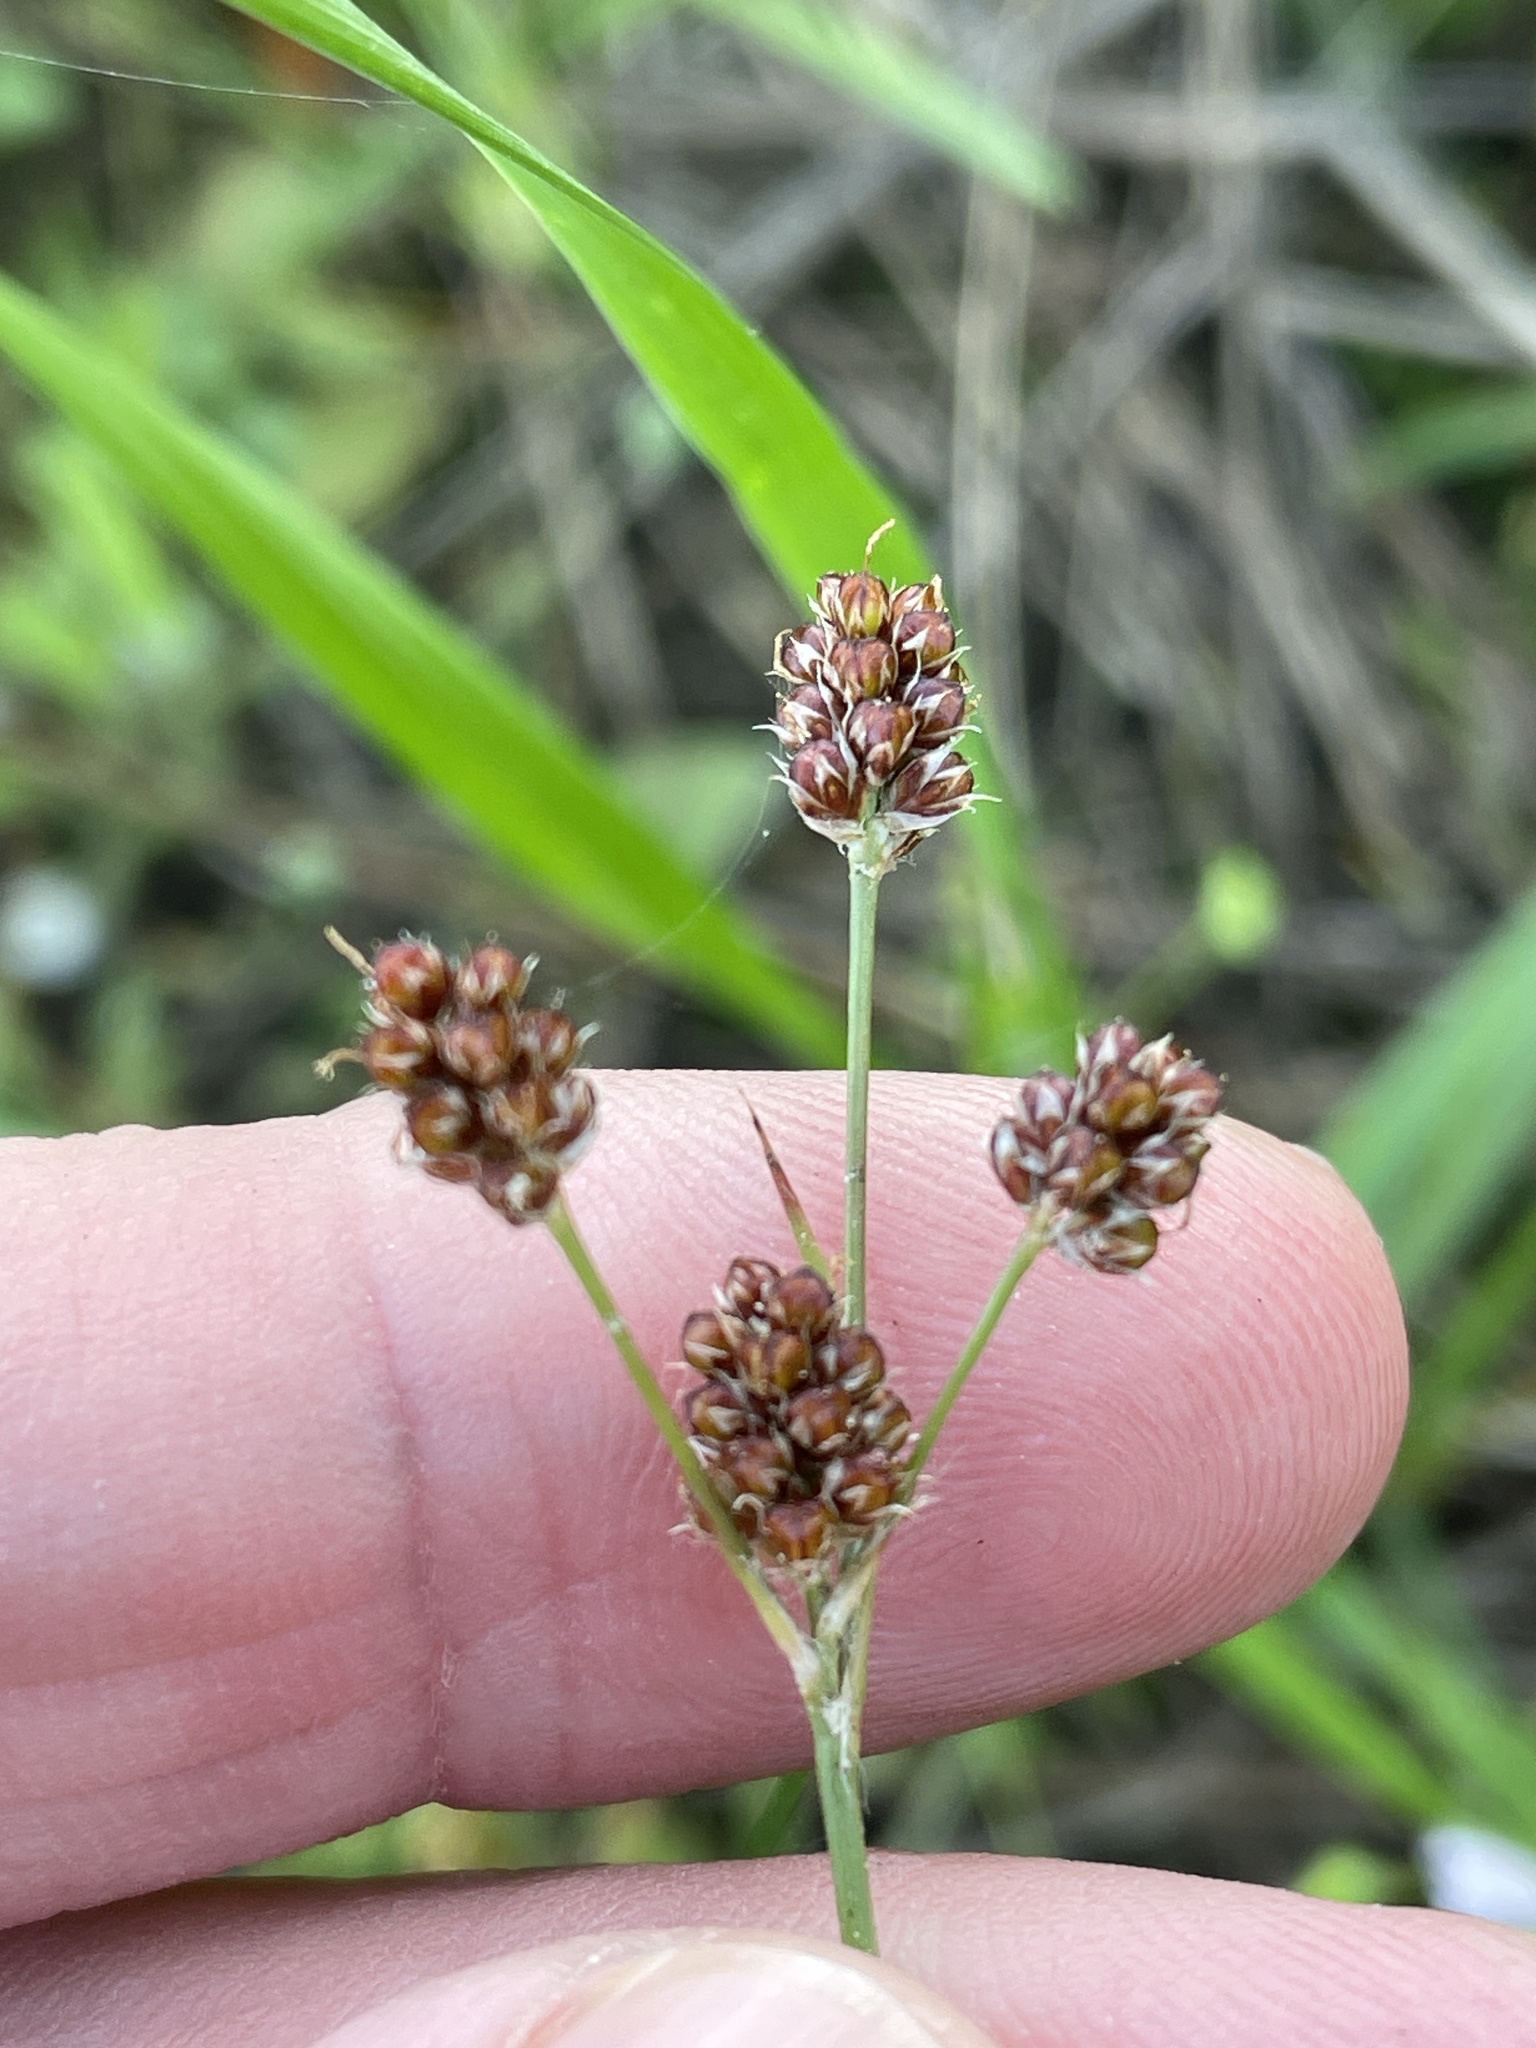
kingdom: Plantae
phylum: Tracheophyta
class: Liliopsida
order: Poales
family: Juncaceae
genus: Luzula
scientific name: Luzula bulbosa
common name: Bulbous woodrush
